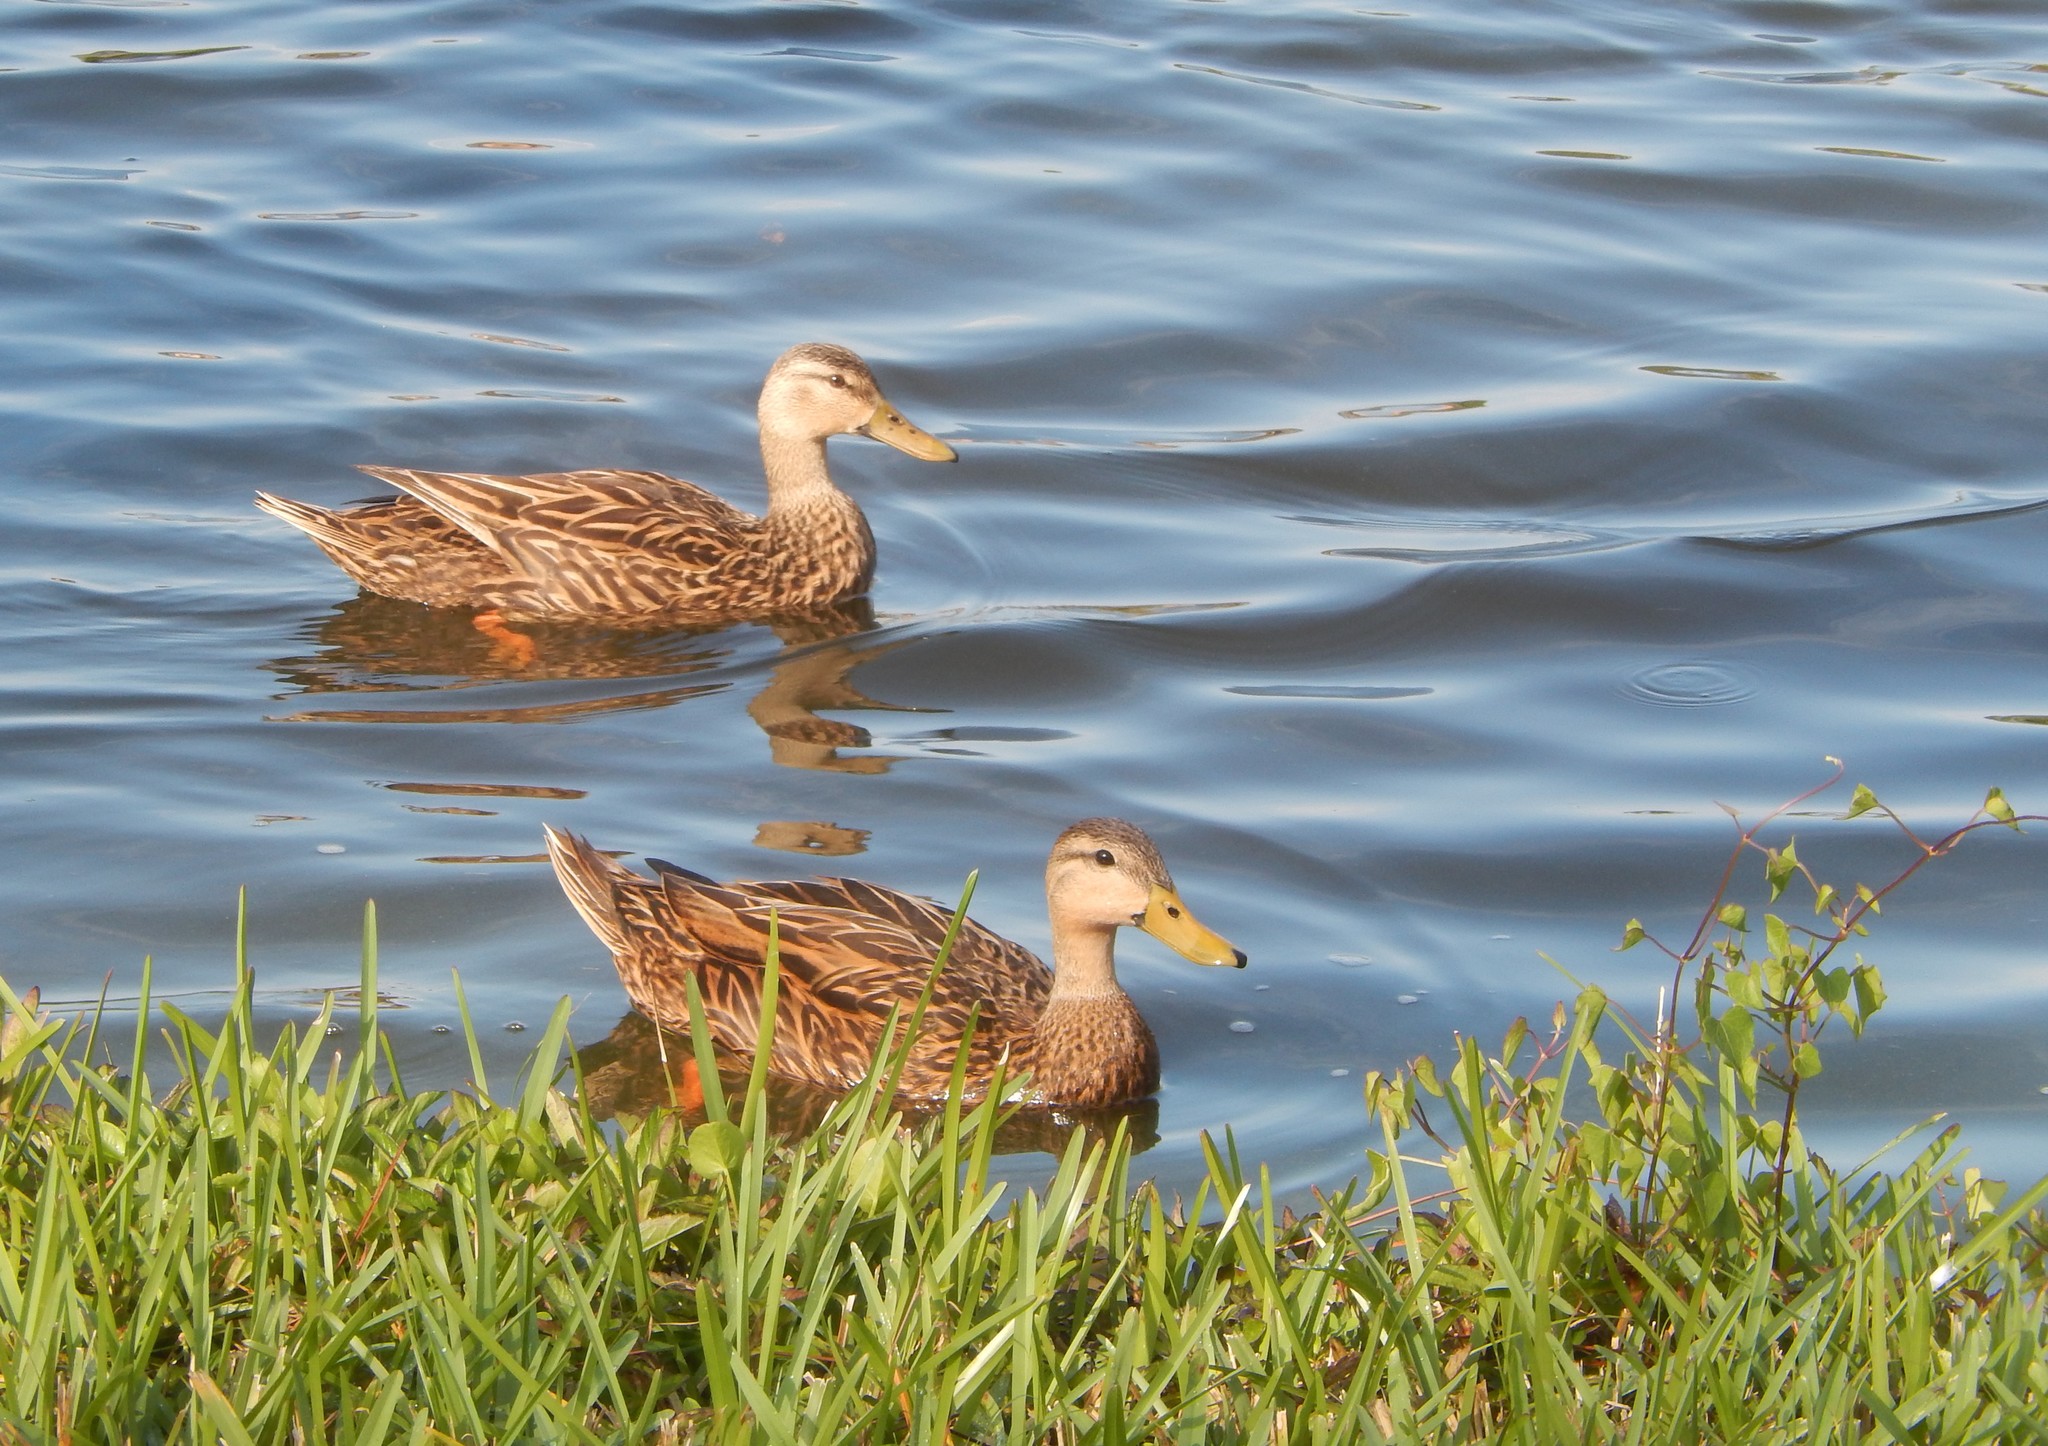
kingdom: Animalia
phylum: Chordata
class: Aves
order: Anseriformes
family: Anatidae
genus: Anas
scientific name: Anas fulvigula
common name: Mottled duck
